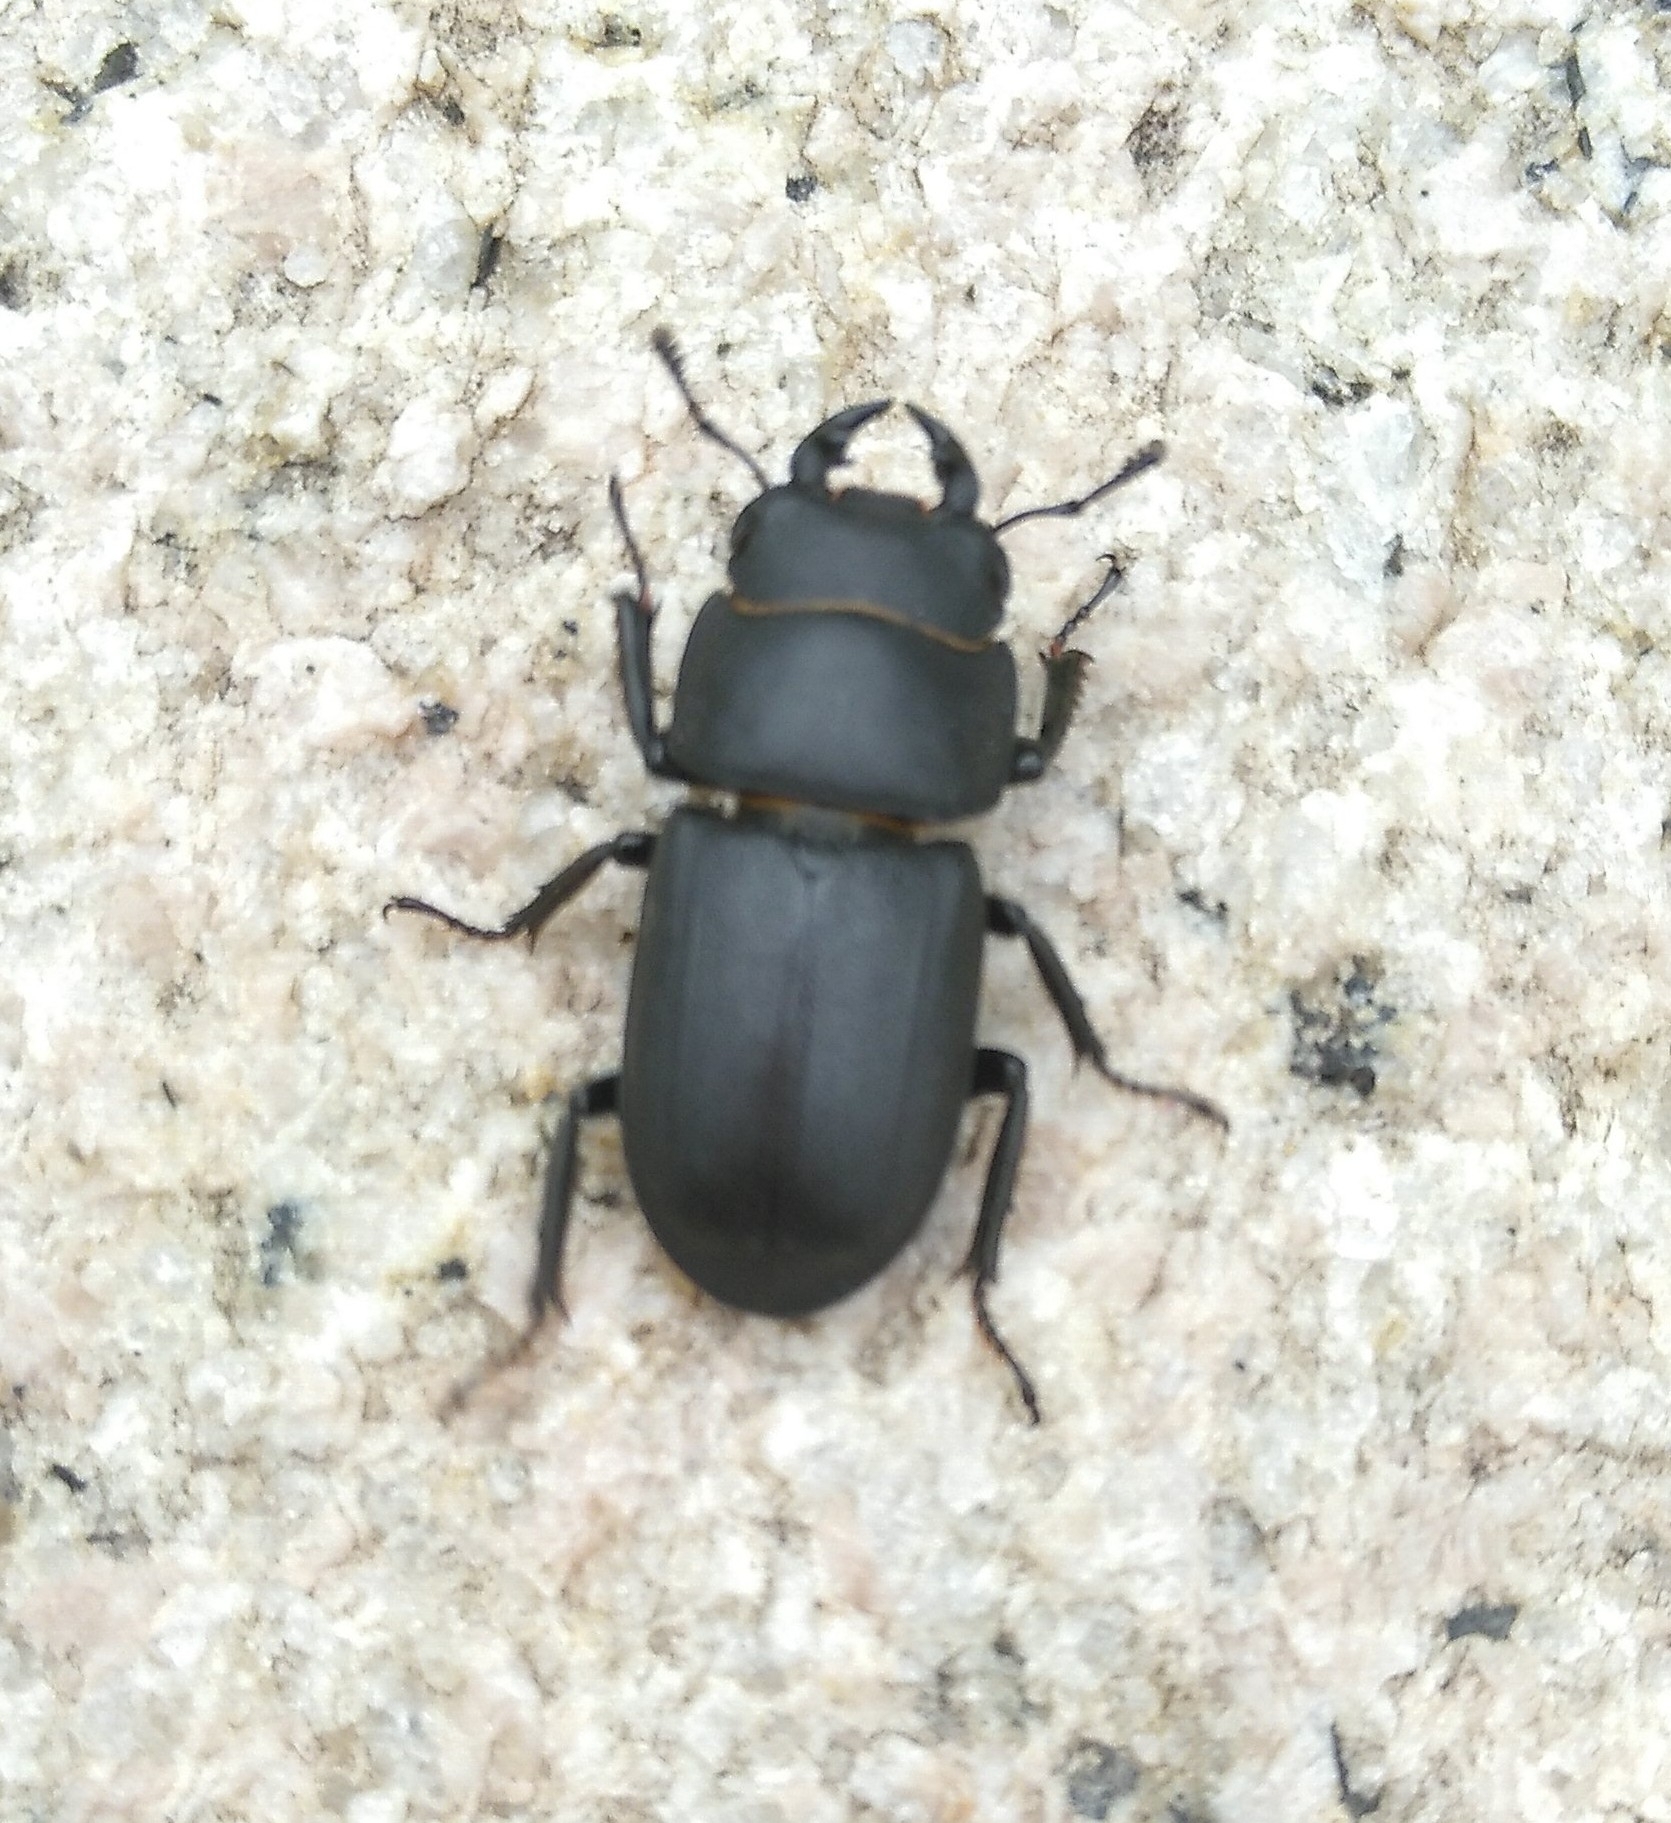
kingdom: Animalia
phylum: Arthropoda
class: Insecta
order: Coleoptera
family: Lucanidae
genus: Dorcus
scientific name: Dorcus parallelipipedus
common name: Lesser stag beetle
